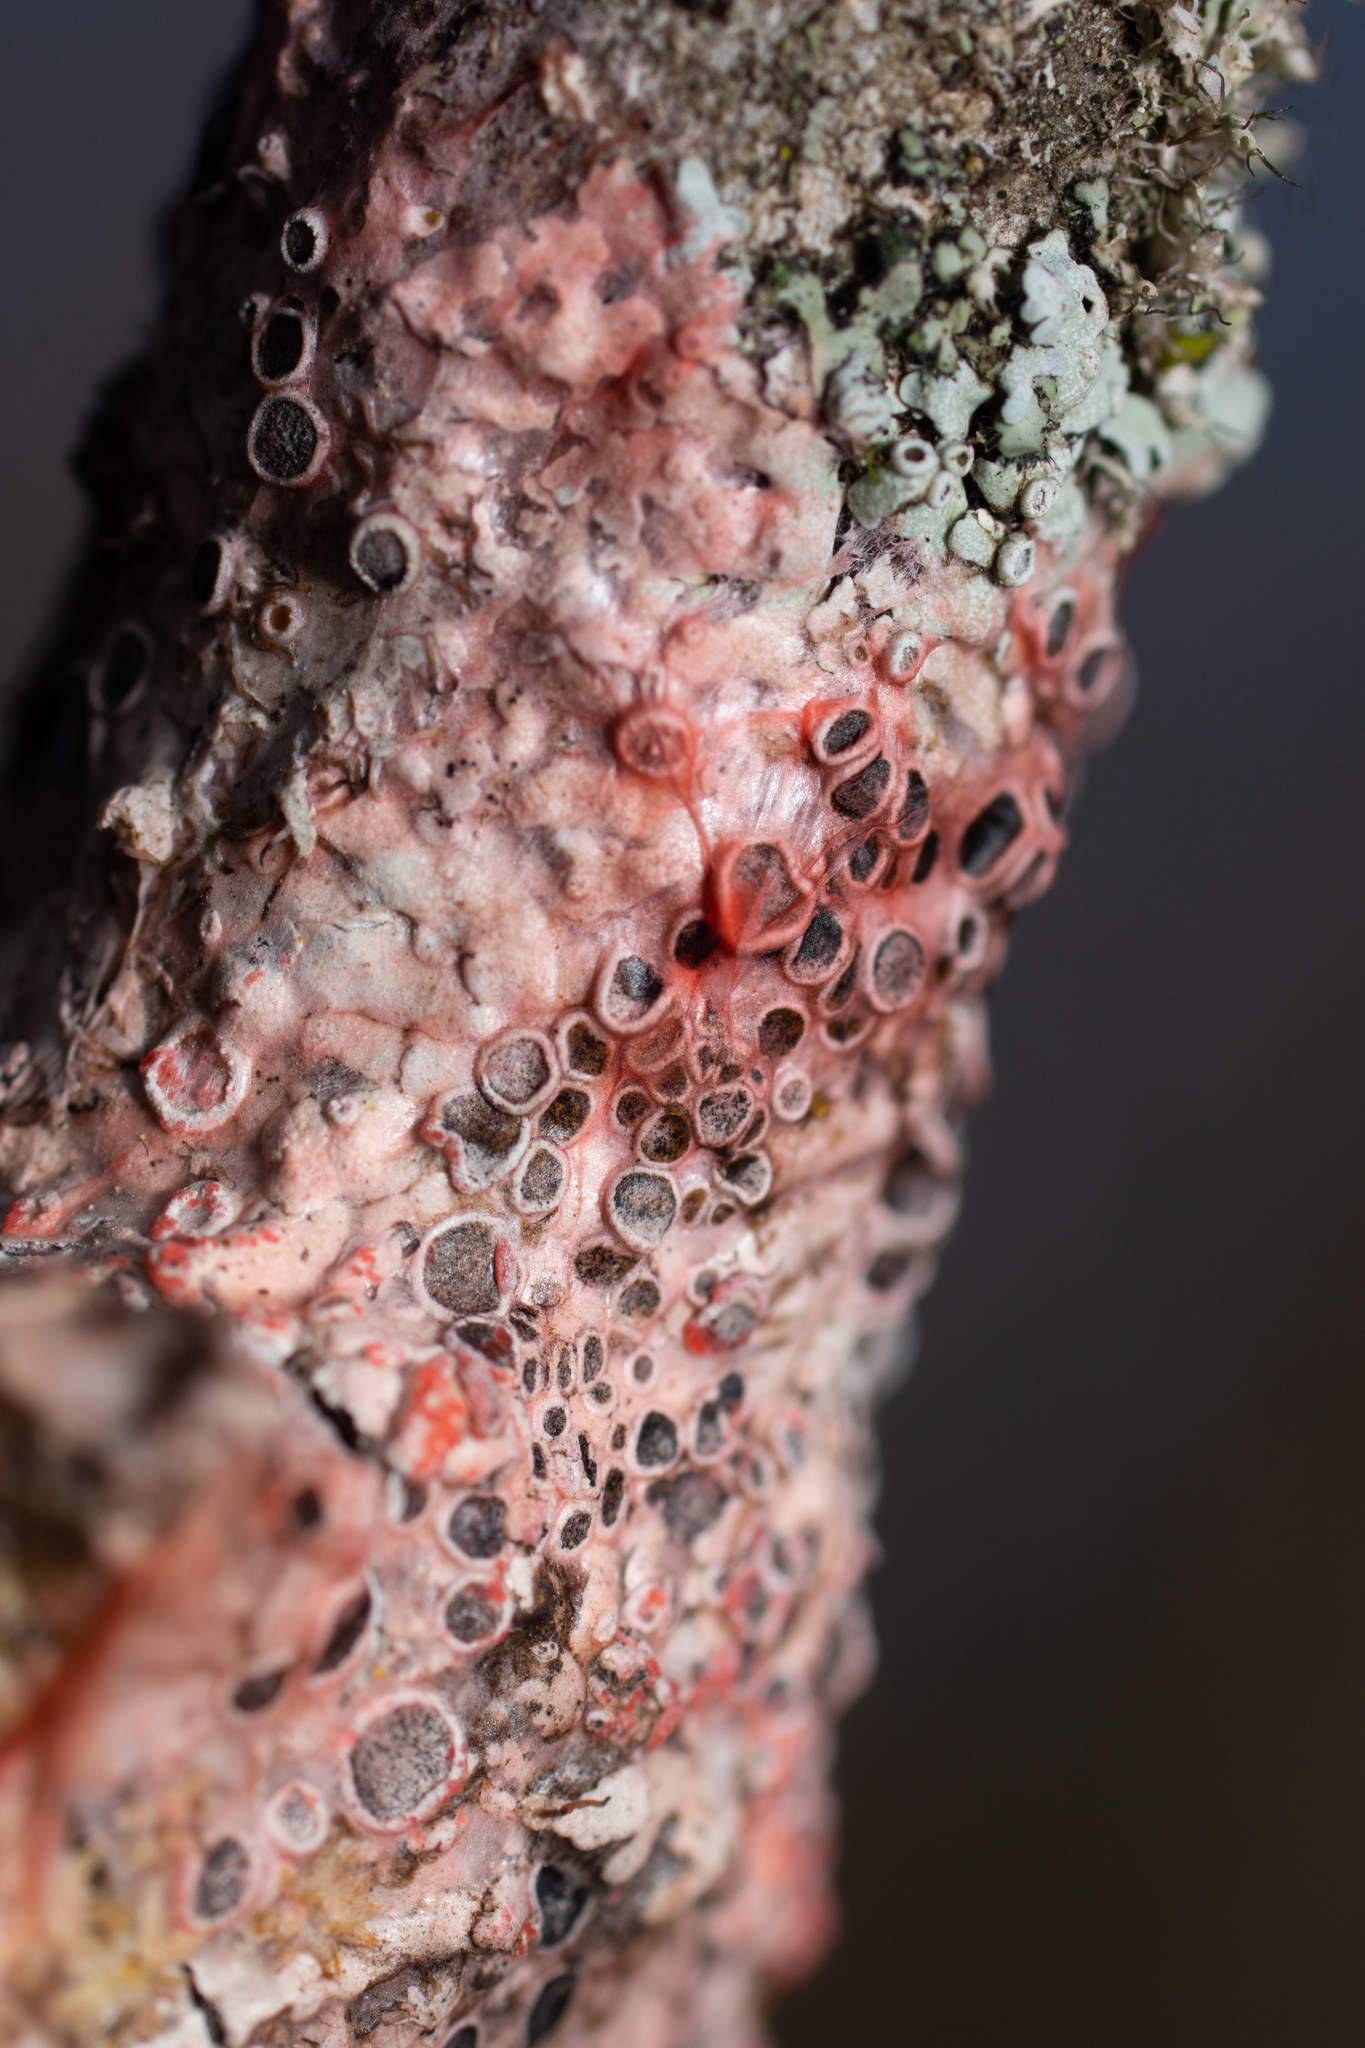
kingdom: Fungi
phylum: Basidiomycota
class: Agaricomycetes
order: Corticiales
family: Corticiaceae
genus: Marchandiomyces
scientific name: Marchandiomyces corallinus
